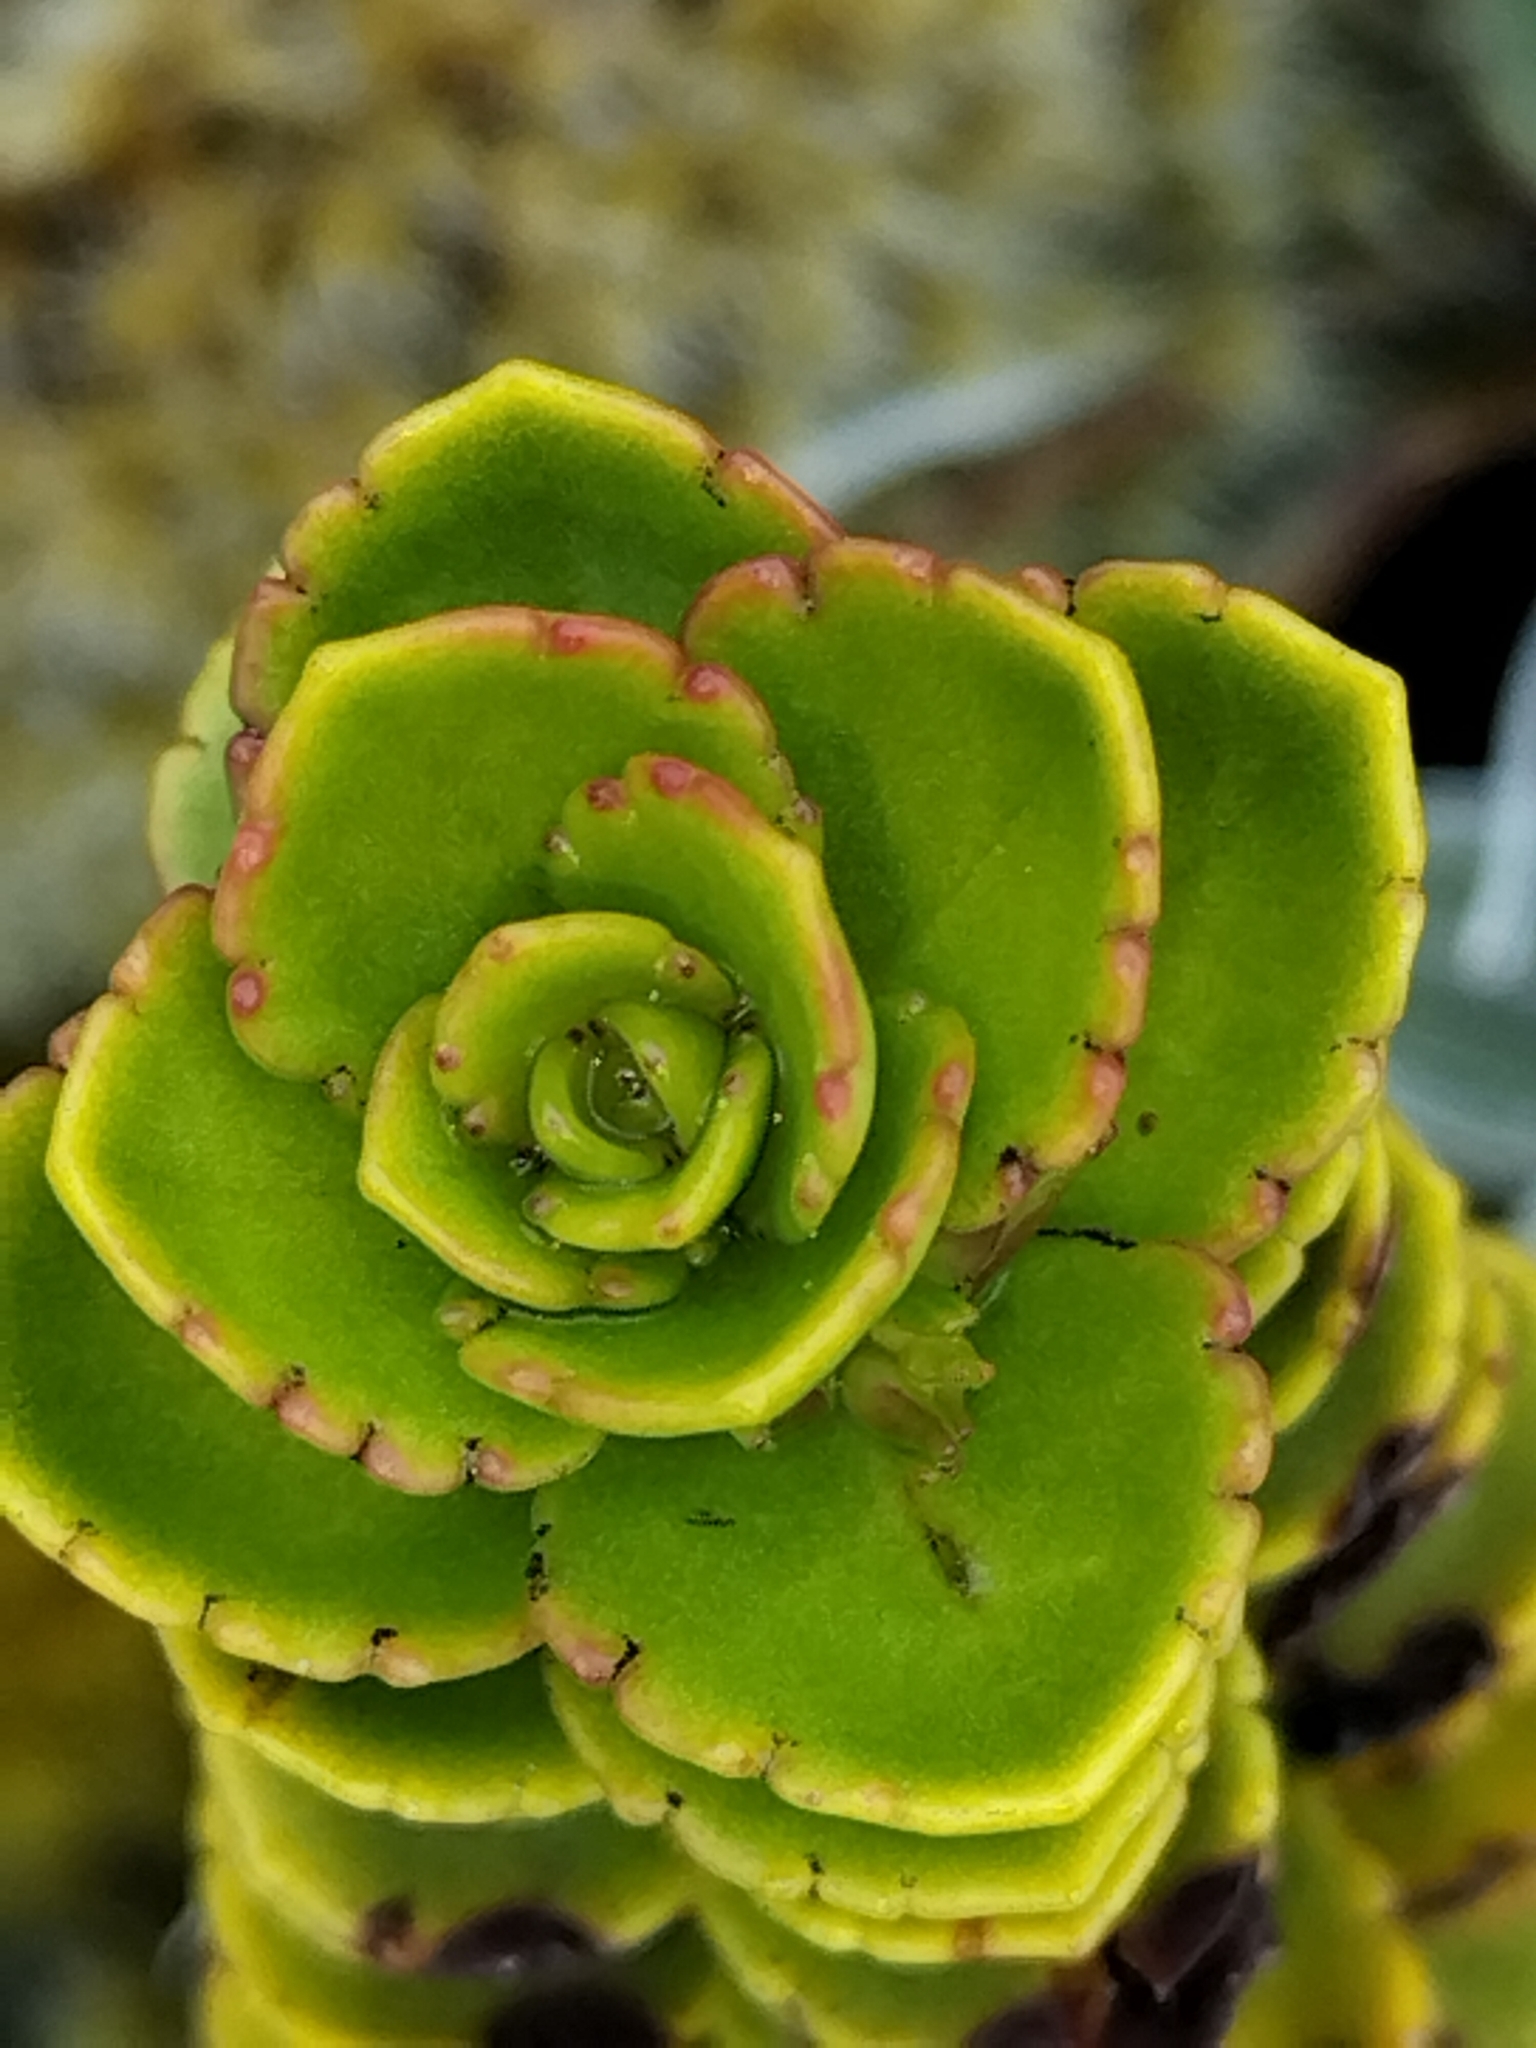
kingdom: Plantae
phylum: Tracheophyta
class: Magnoliopsida
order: Lamiales
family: Plantaginaceae
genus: Veronica
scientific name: Veronica macrantha
